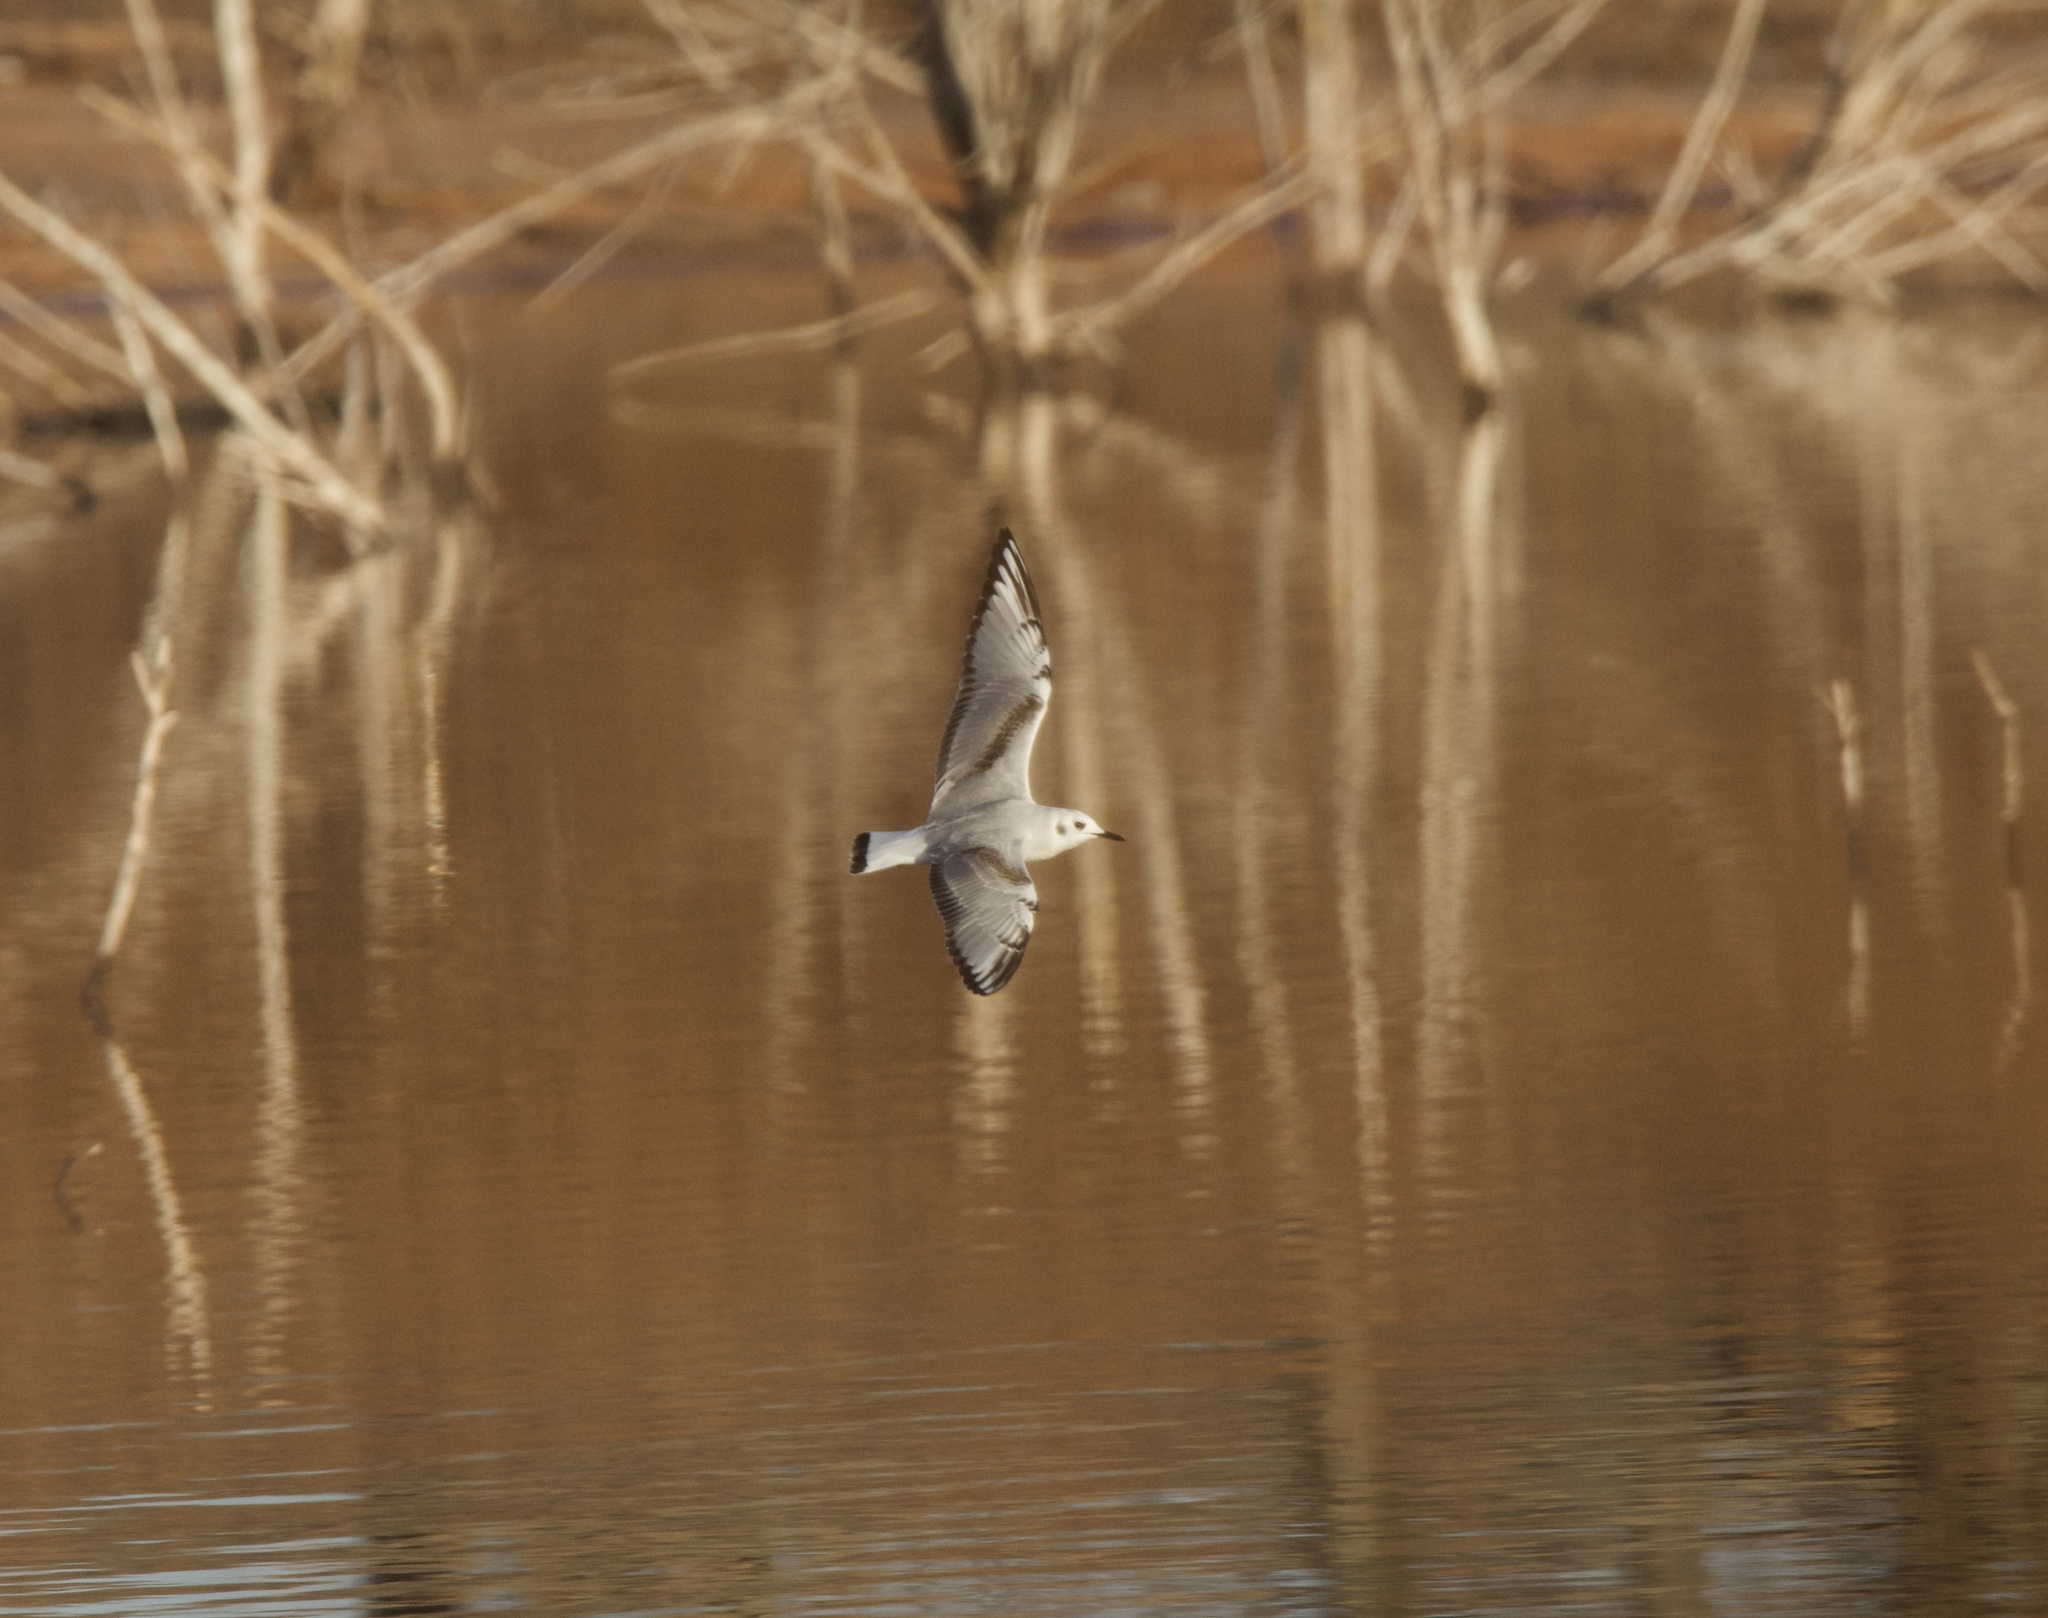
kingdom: Animalia
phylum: Chordata
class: Aves
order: Charadriiformes
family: Laridae
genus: Chroicocephalus
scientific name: Chroicocephalus philadelphia
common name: Bonaparte's gull
